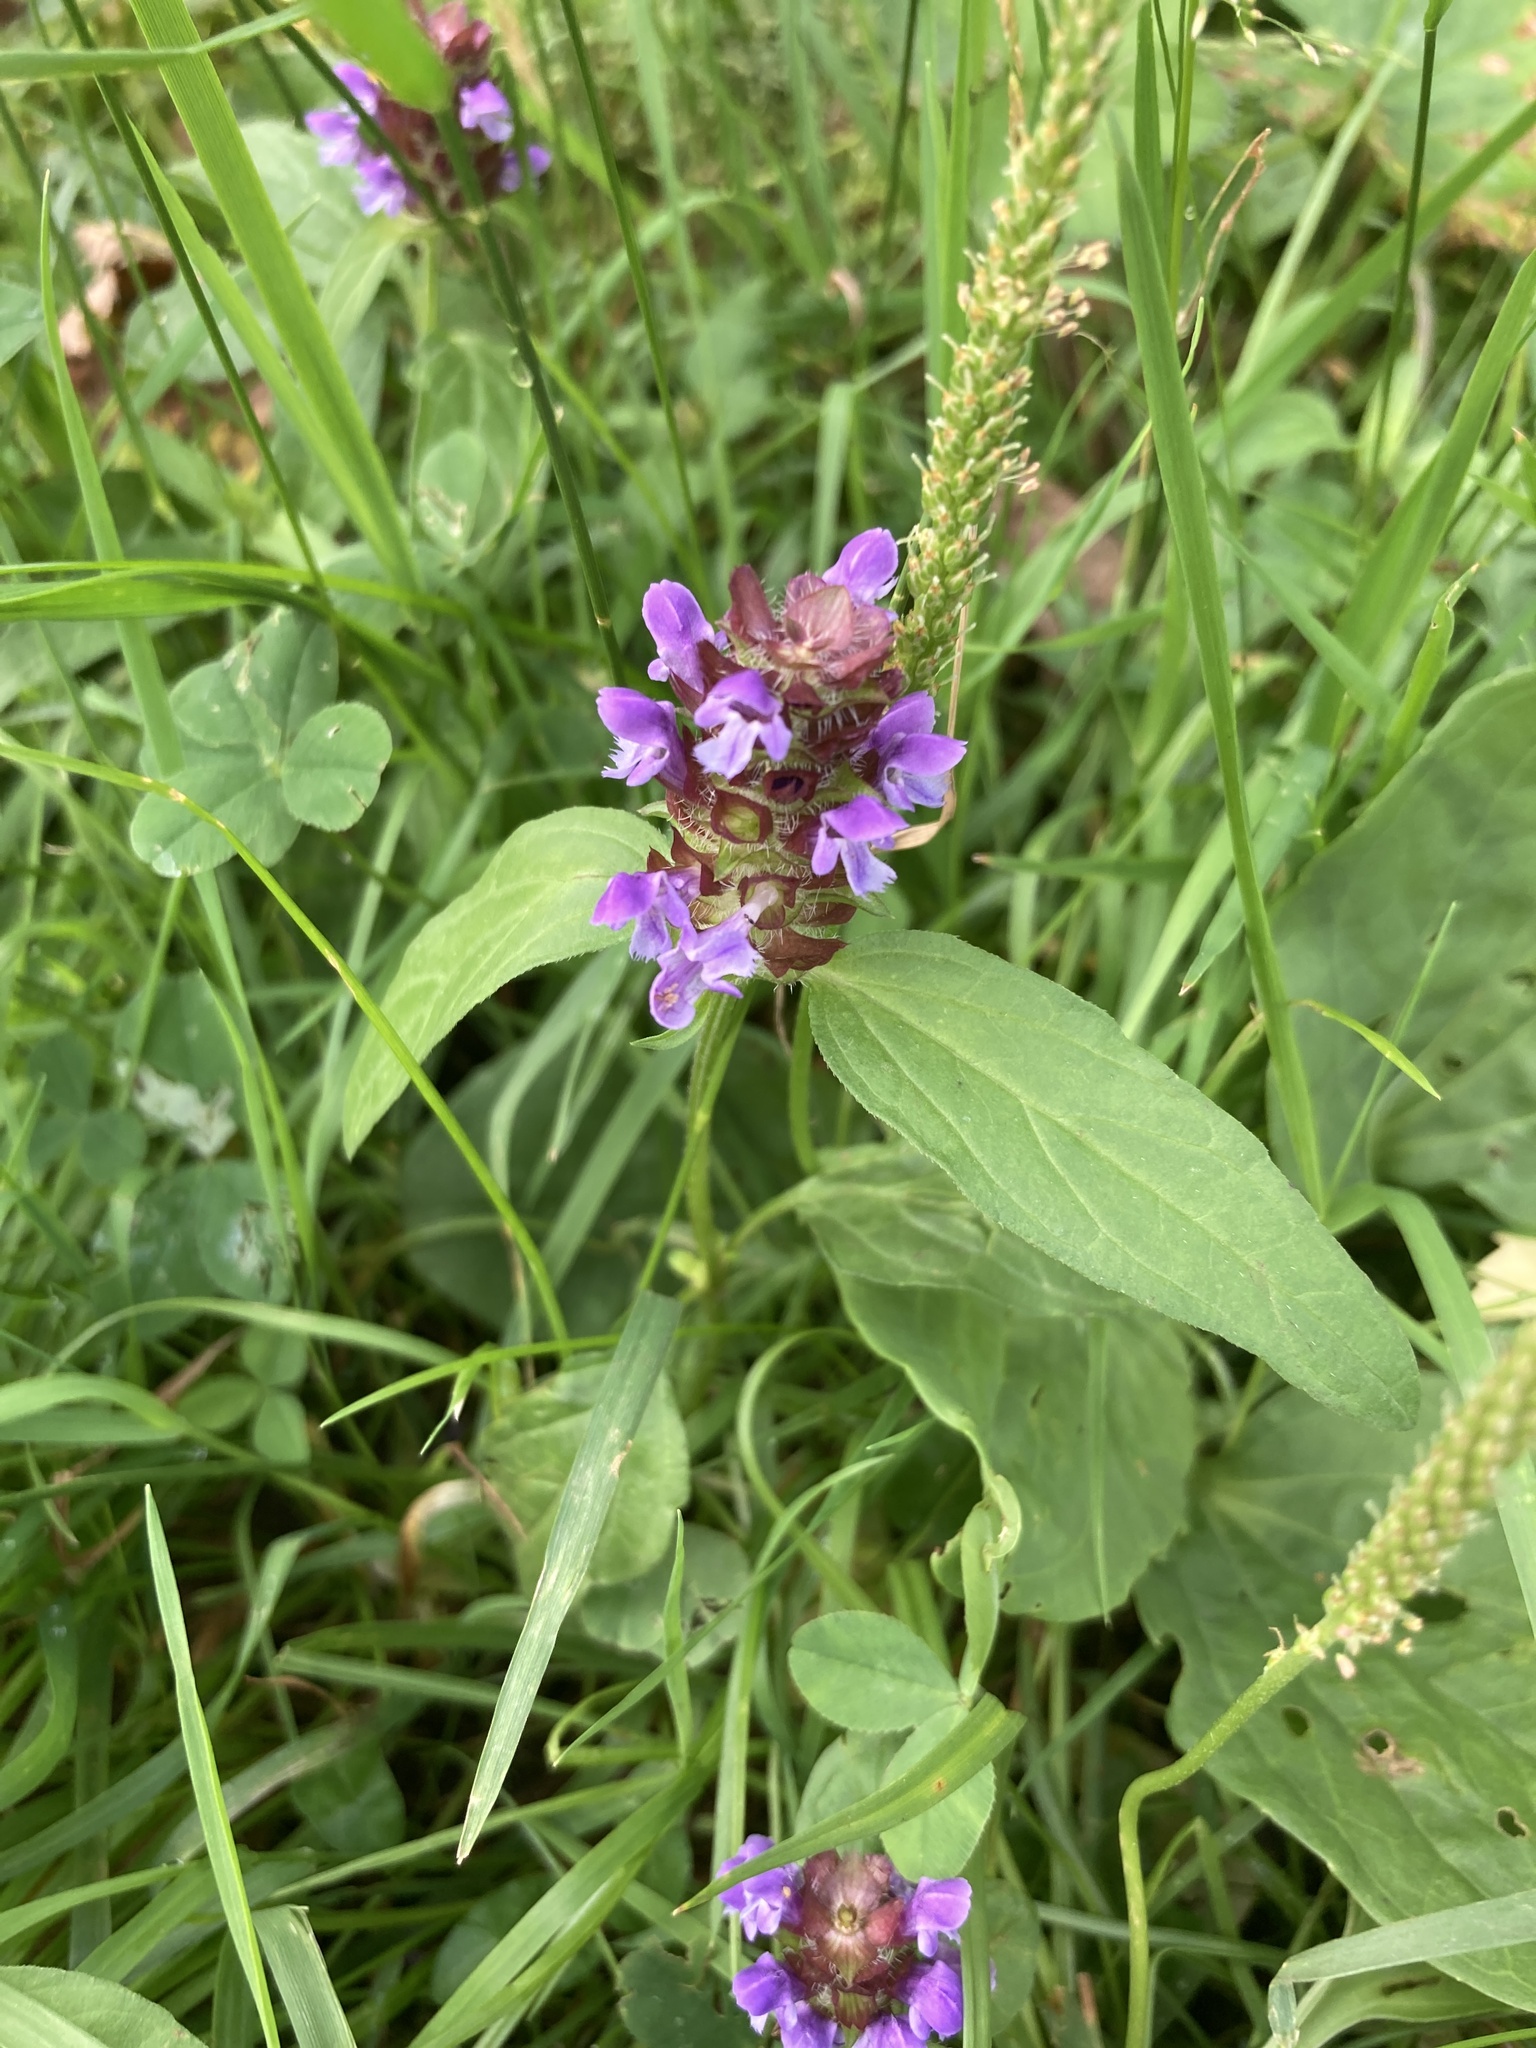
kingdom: Plantae
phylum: Tracheophyta
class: Magnoliopsida
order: Lamiales
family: Lamiaceae
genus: Prunella
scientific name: Prunella vulgaris
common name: Heal-all
